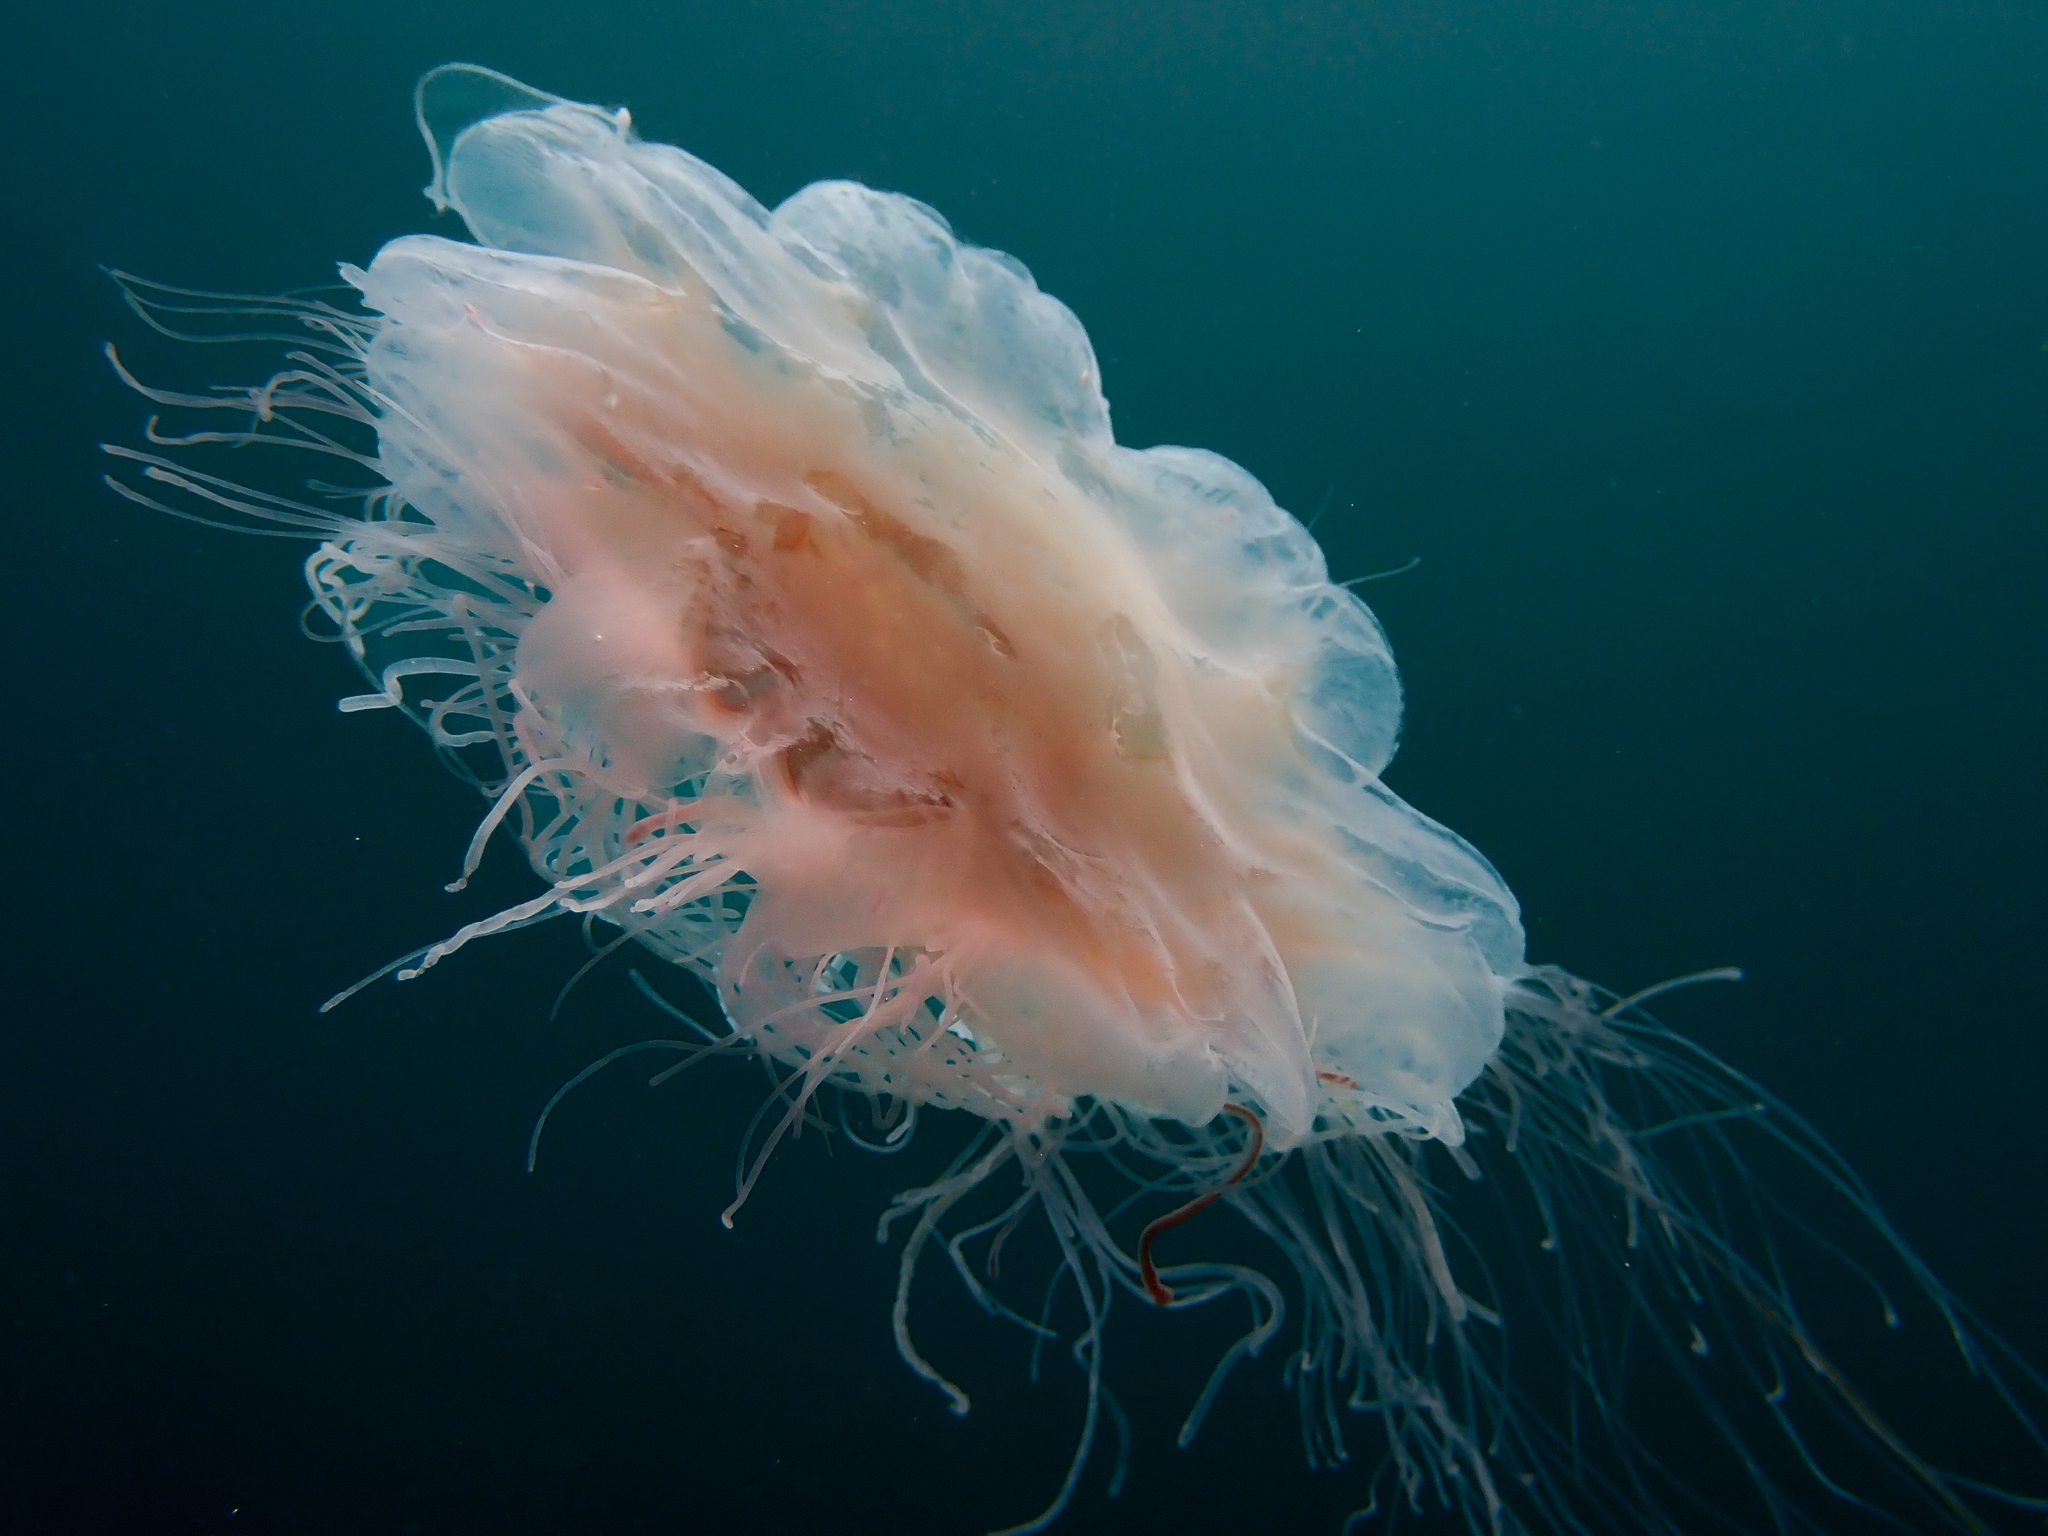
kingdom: Animalia
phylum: Cnidaria
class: Scyphozoa
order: Semaeostomeae
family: Cyaneidae
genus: Cyanea
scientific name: Cyanea capillata
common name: Lion's mane jellyfish
